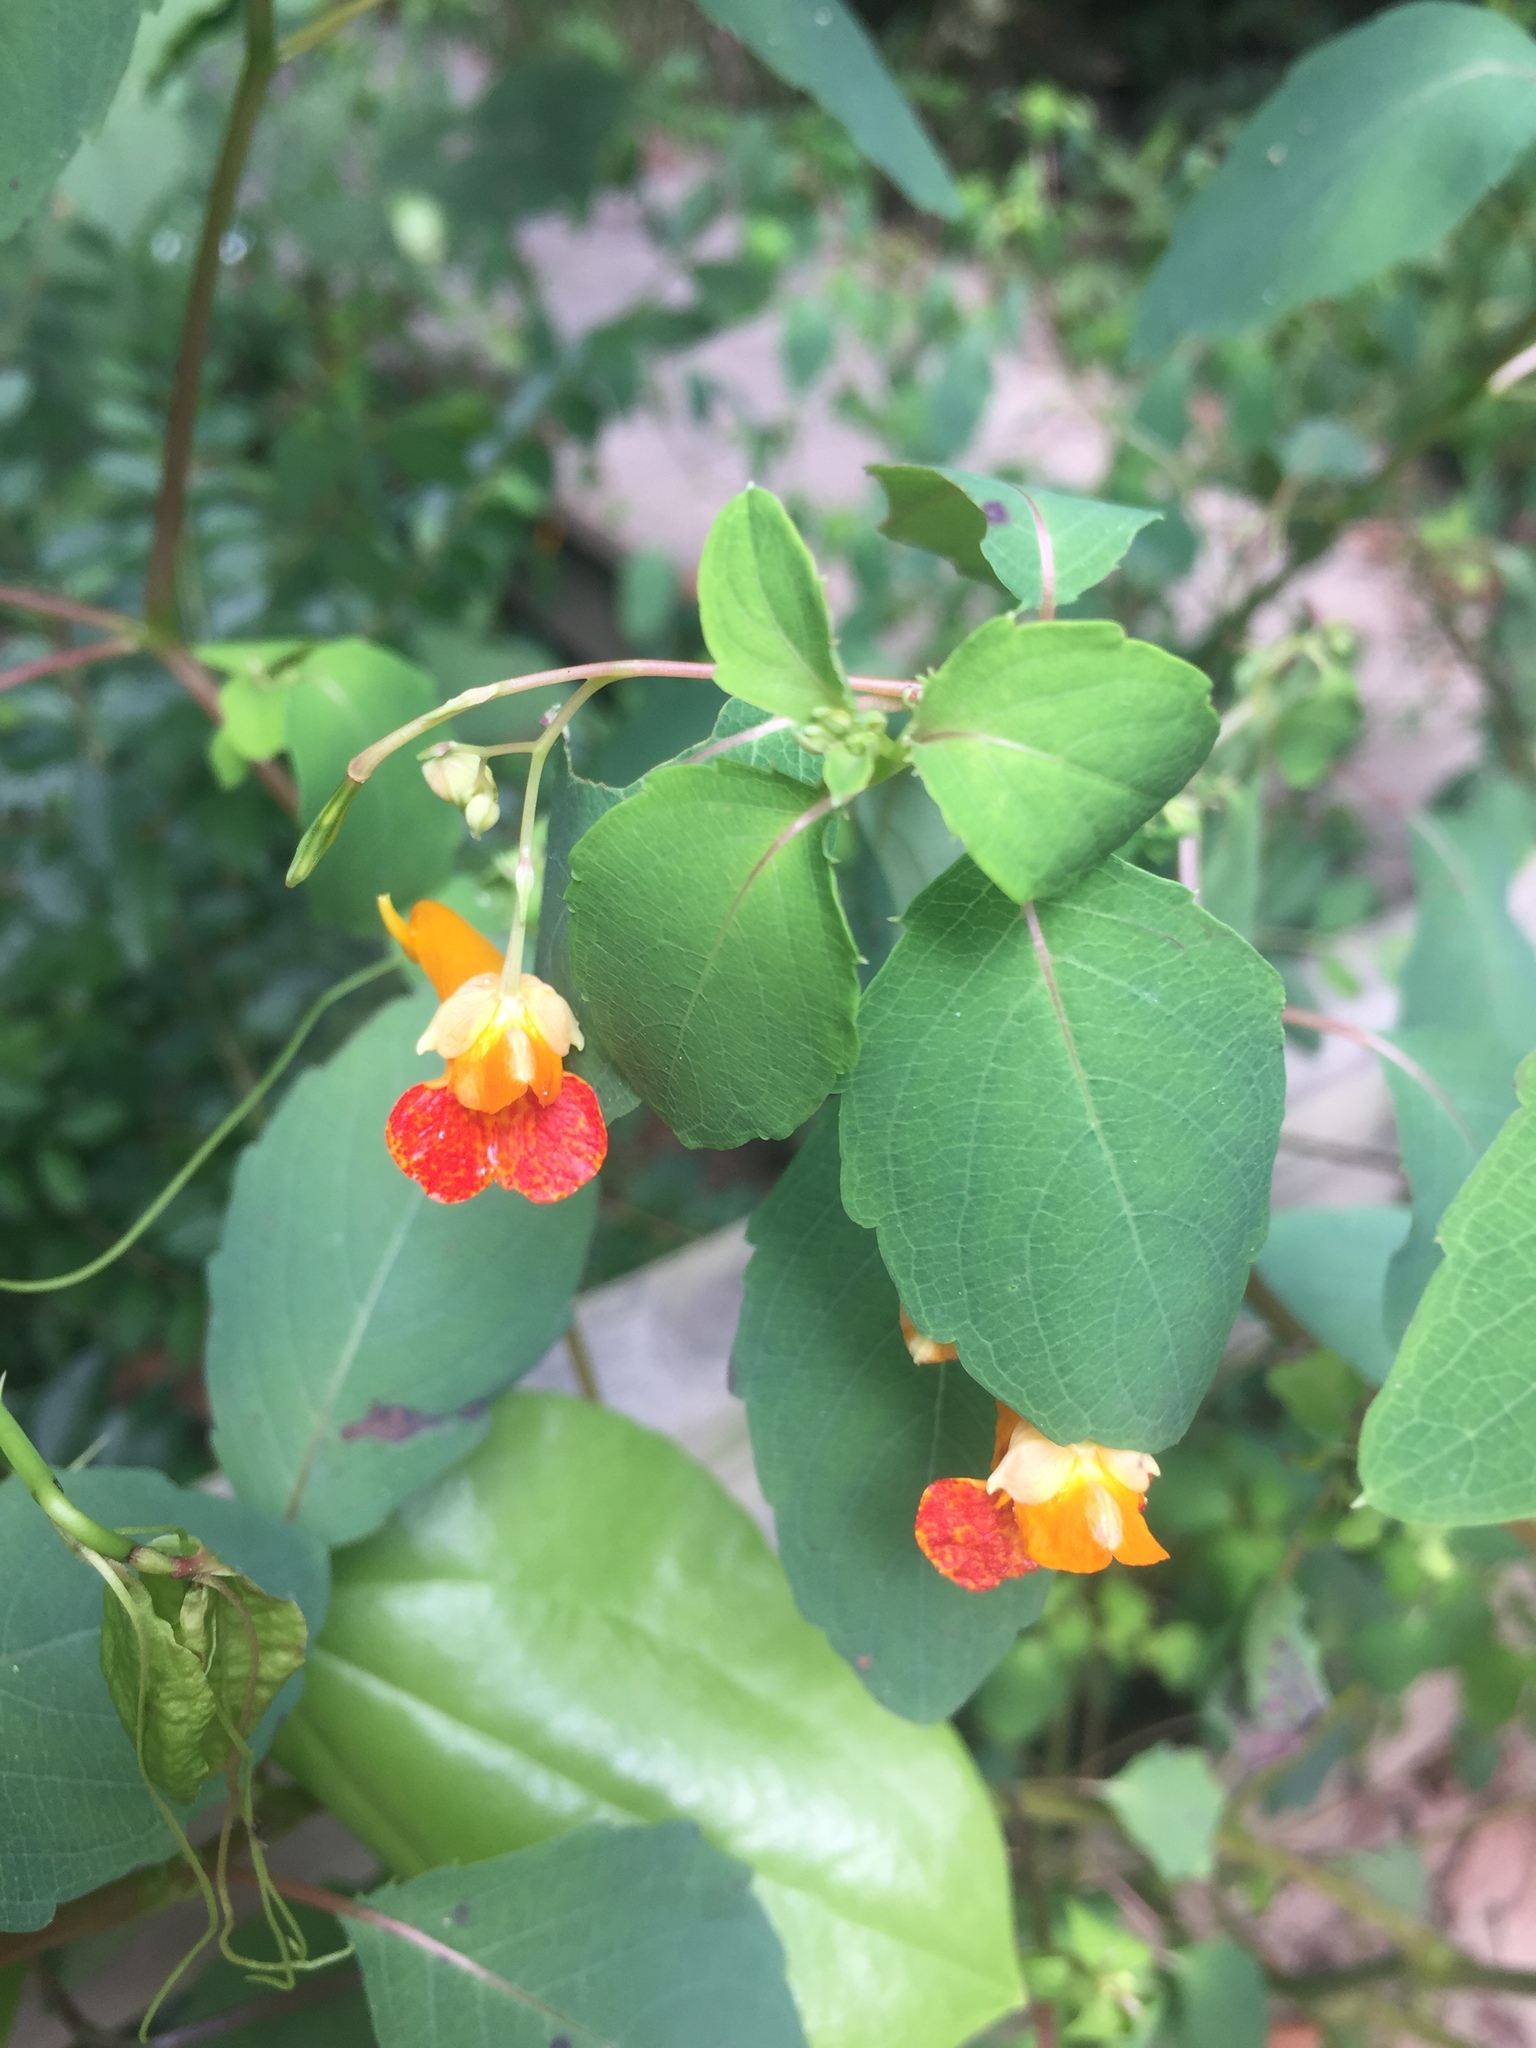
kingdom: Plantae
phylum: Tracheophyta
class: Magnoliopsida
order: Ericales
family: Balsaminaceae
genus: Impatiens
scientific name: Impatiens capensis
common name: Orange balsam
